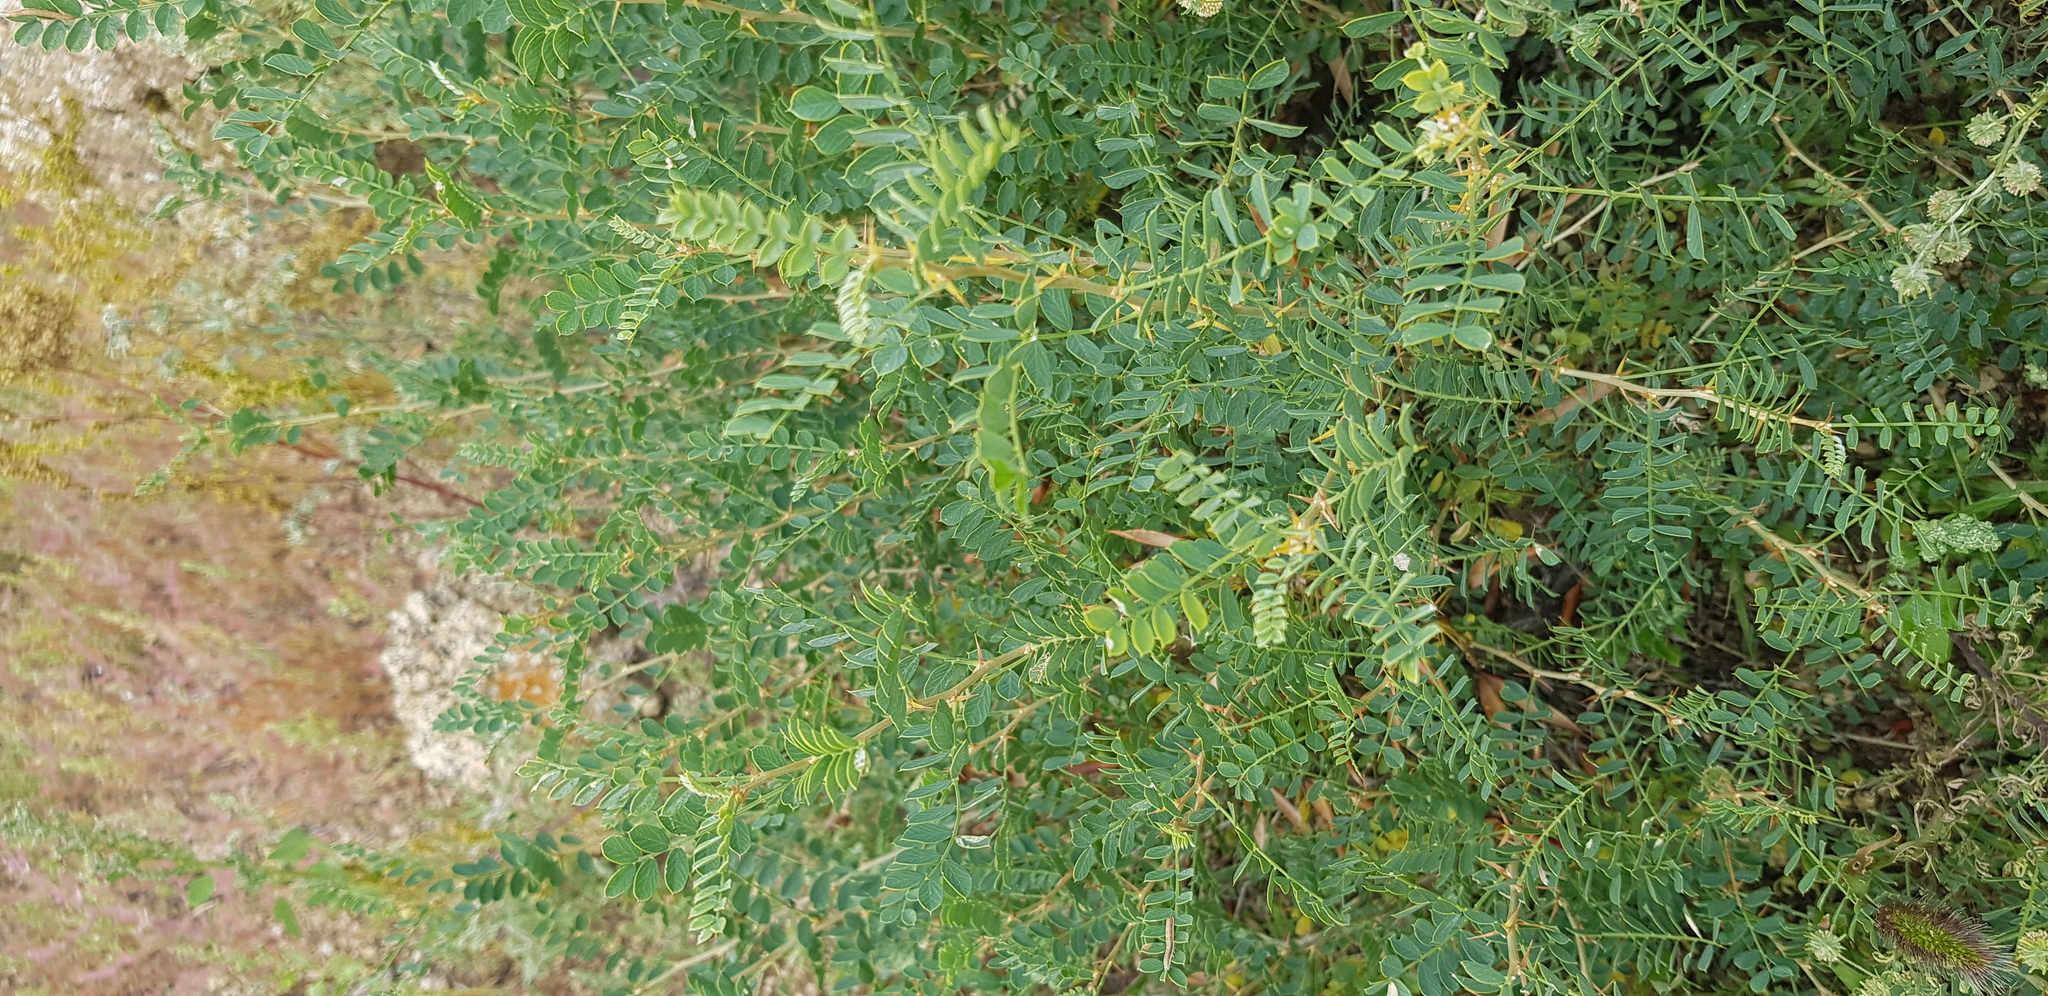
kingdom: Plantae
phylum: Tracheophyta
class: Magnoliopsida
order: Fabales
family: Fabaceae
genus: Caragana
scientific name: Caragana microphylla
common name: Littleleaf peashrub
